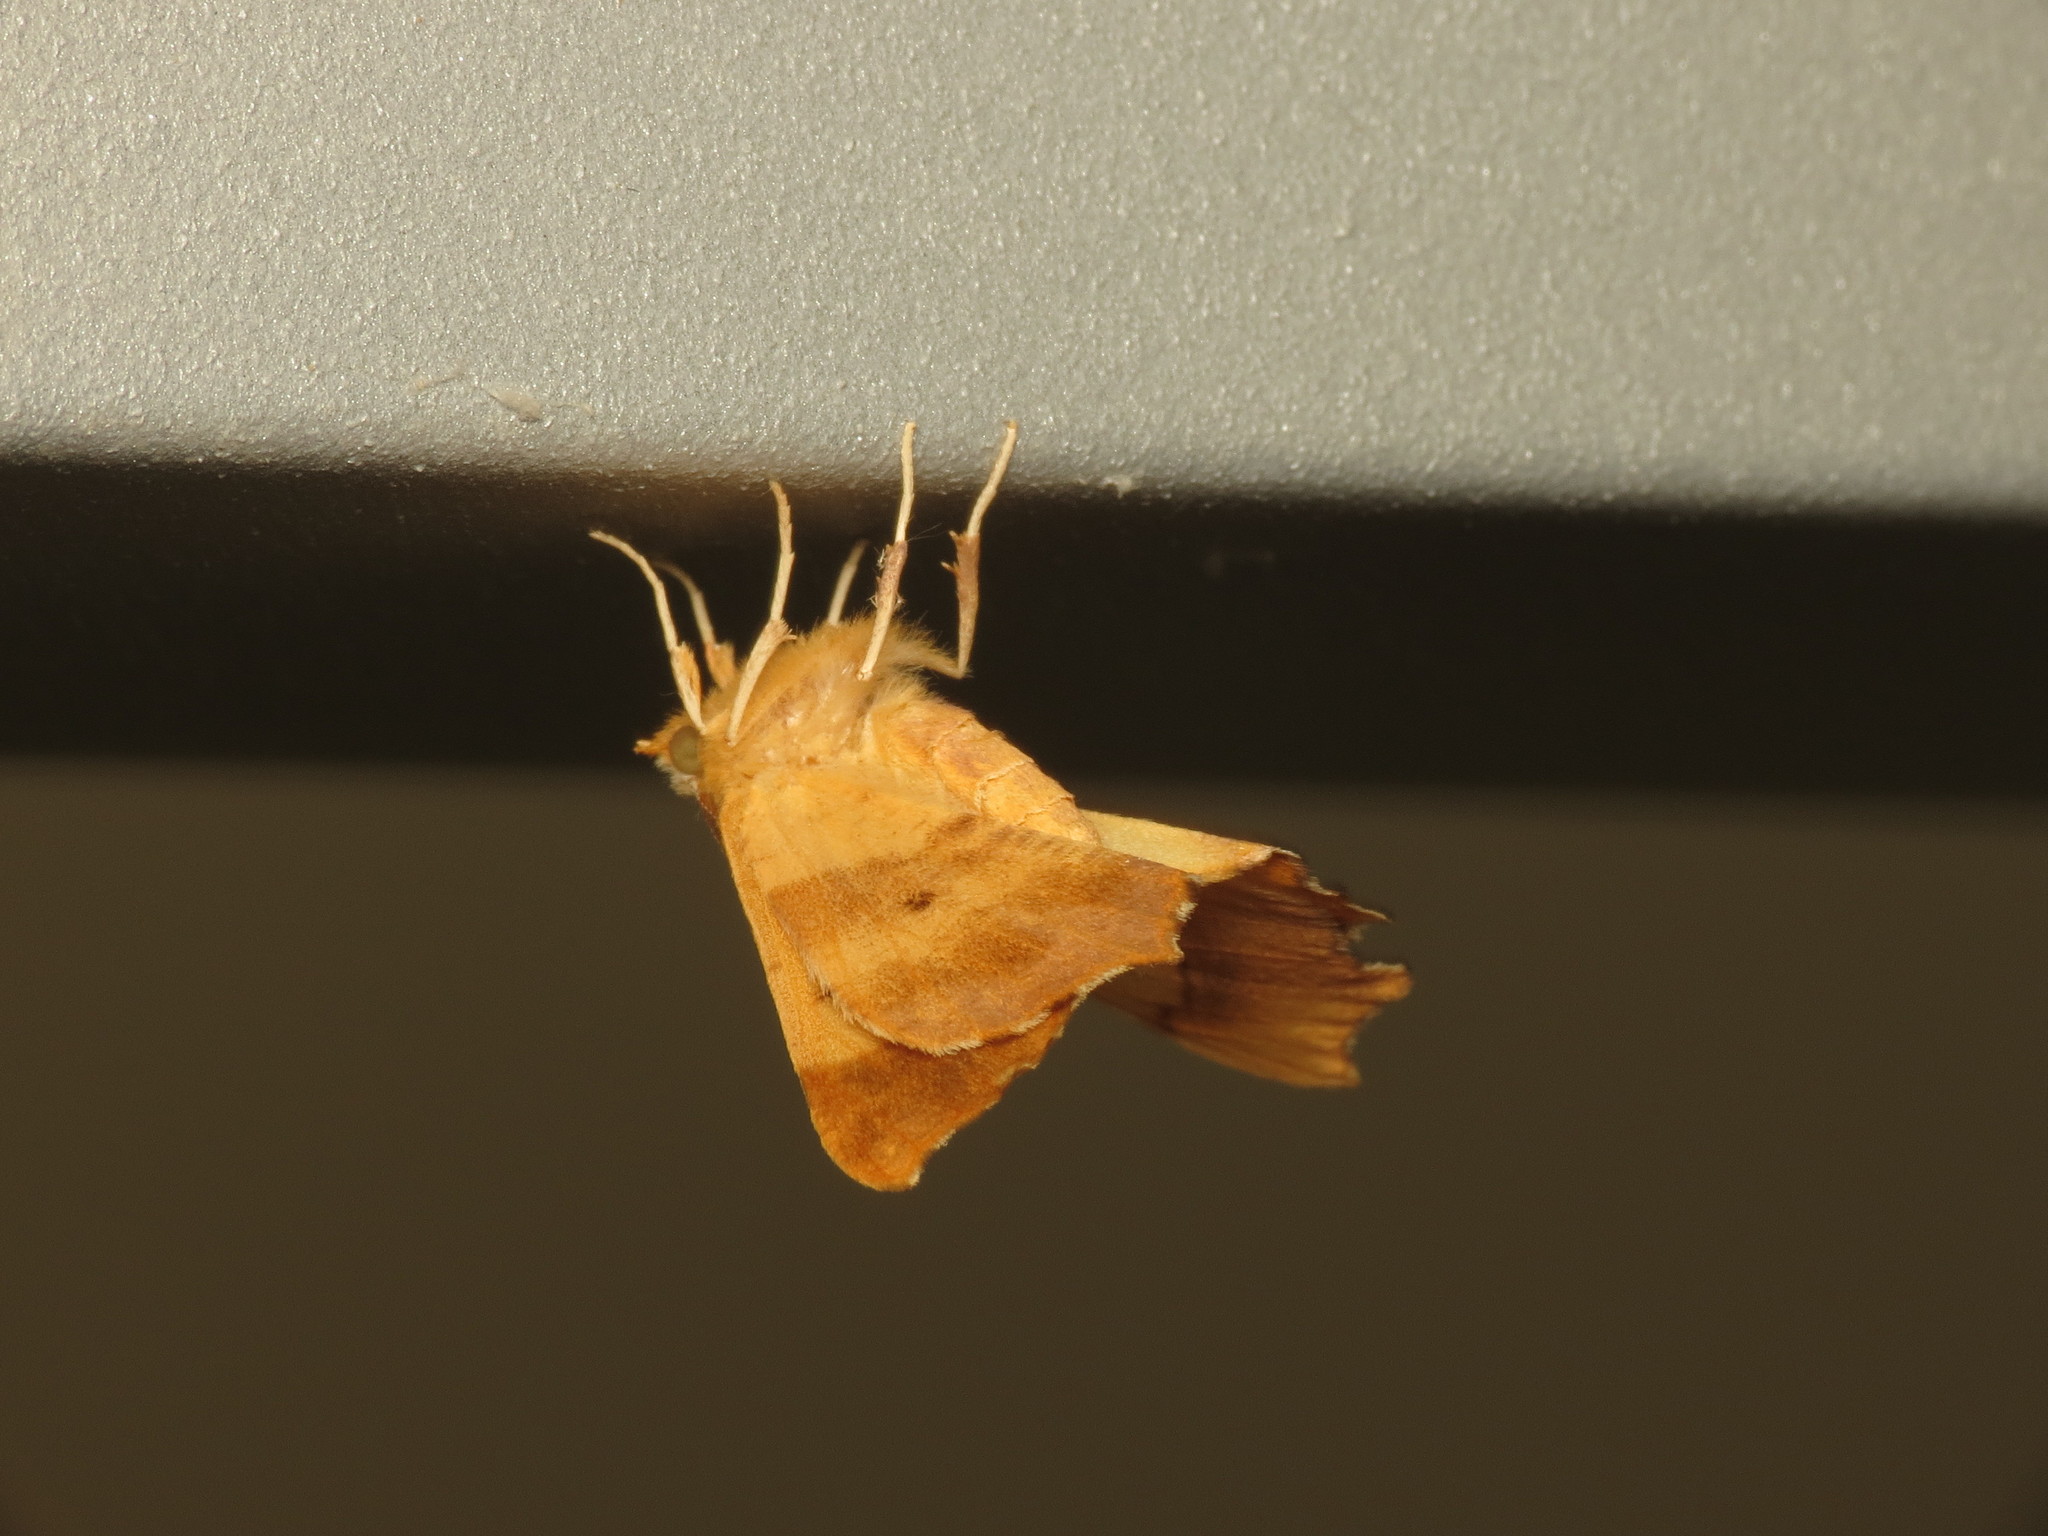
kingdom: Animalia
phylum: Arthropoda
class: Insecta
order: Lepidoptera
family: Geometridae
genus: Ennomos
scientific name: Ennomos quercinaria
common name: August thorn
